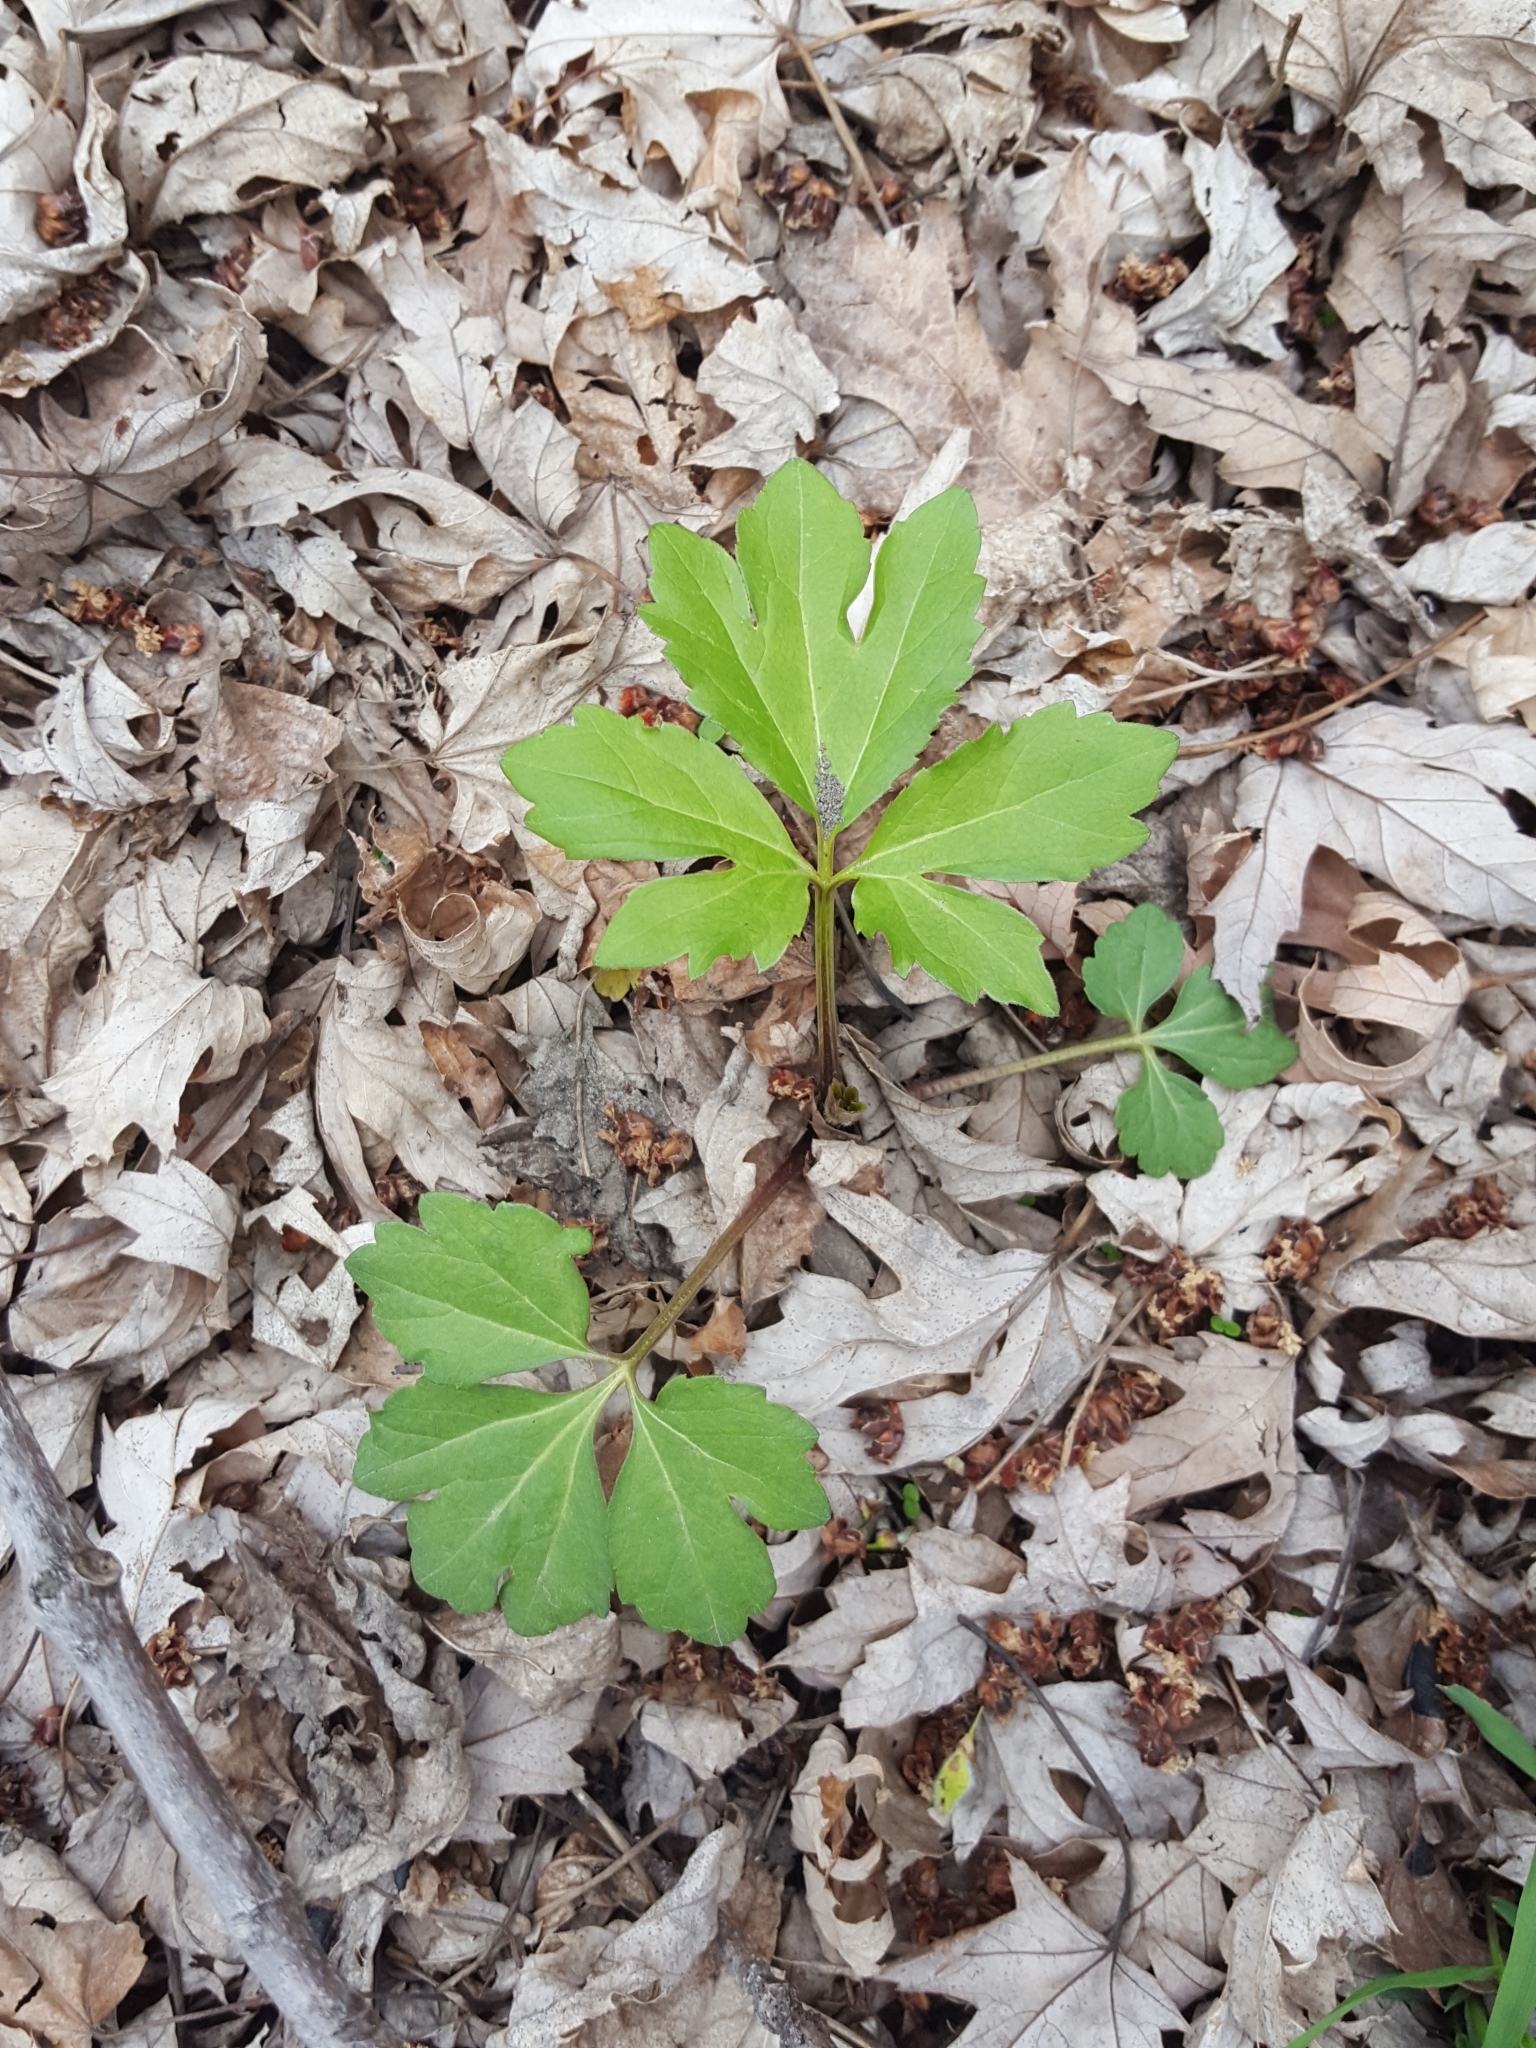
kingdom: Plantae
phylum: Tracheophyta
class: Magnoliopsida
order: Asterales
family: Asteraceae
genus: Rudbeckia
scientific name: Rudbeckia laciniata
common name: Coneflower
